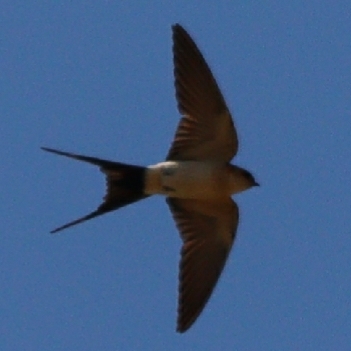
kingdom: Animalia
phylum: Chordata
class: Aves
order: Passeriformes
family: Hirundinidae
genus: Cecropis
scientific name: Cecropis daurica
